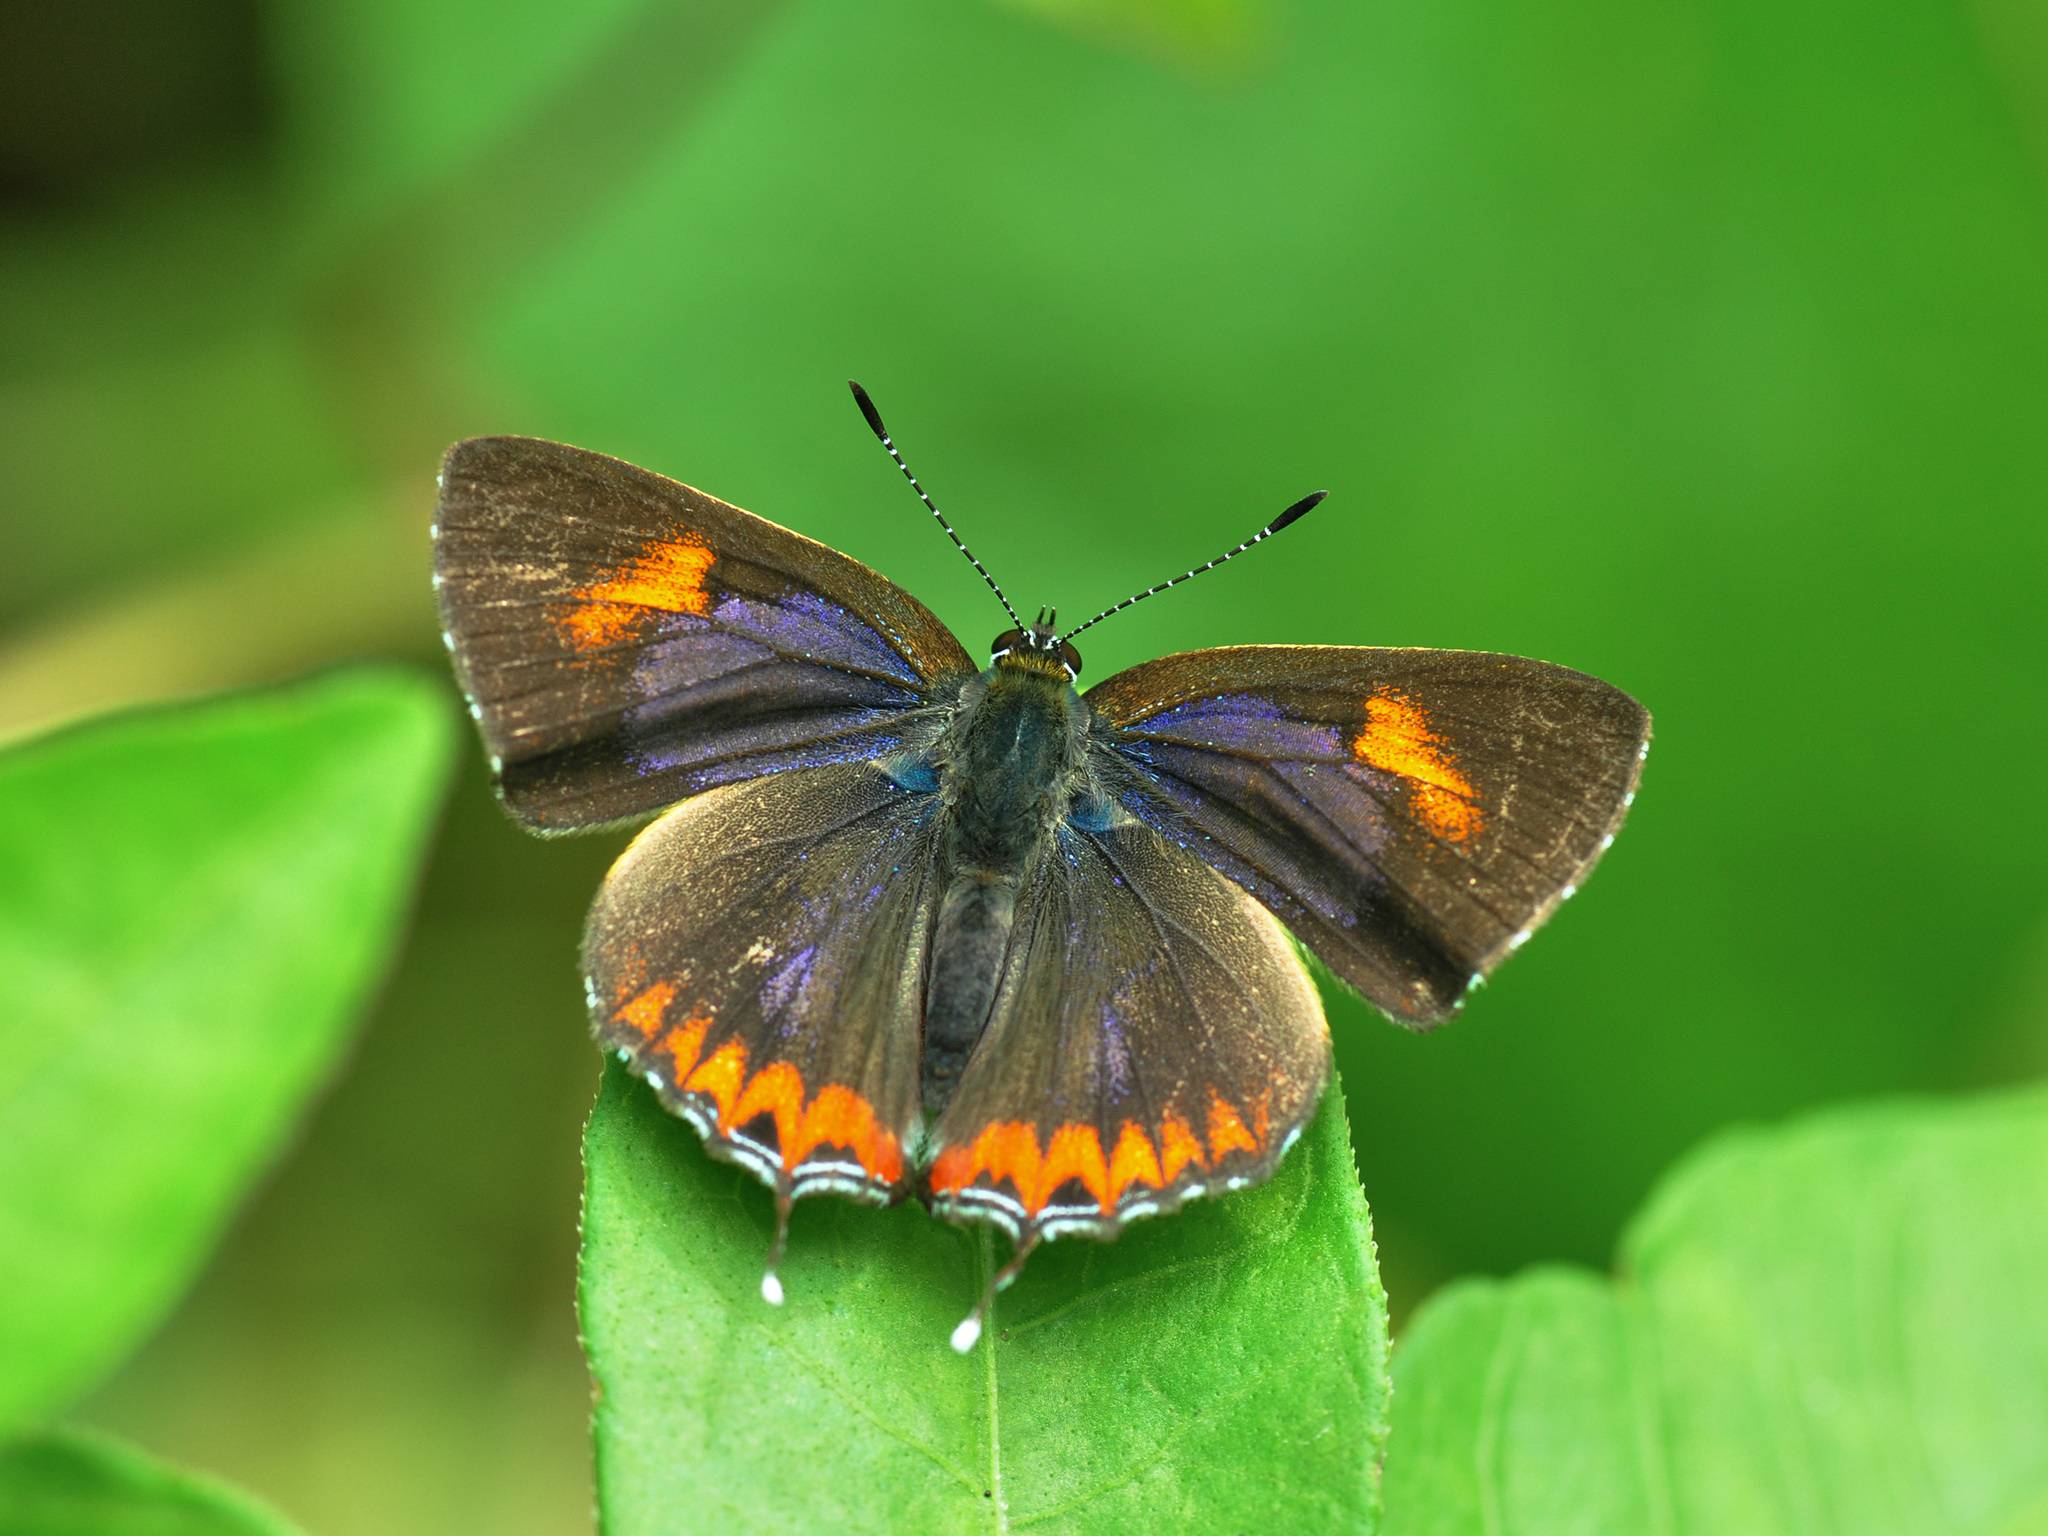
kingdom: Animalia
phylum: Arthropoda
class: Insecta
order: Lepidoptera
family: Lycaenidae
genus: Heliophorus
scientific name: Heliophorus epicles
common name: Purple sapphire
